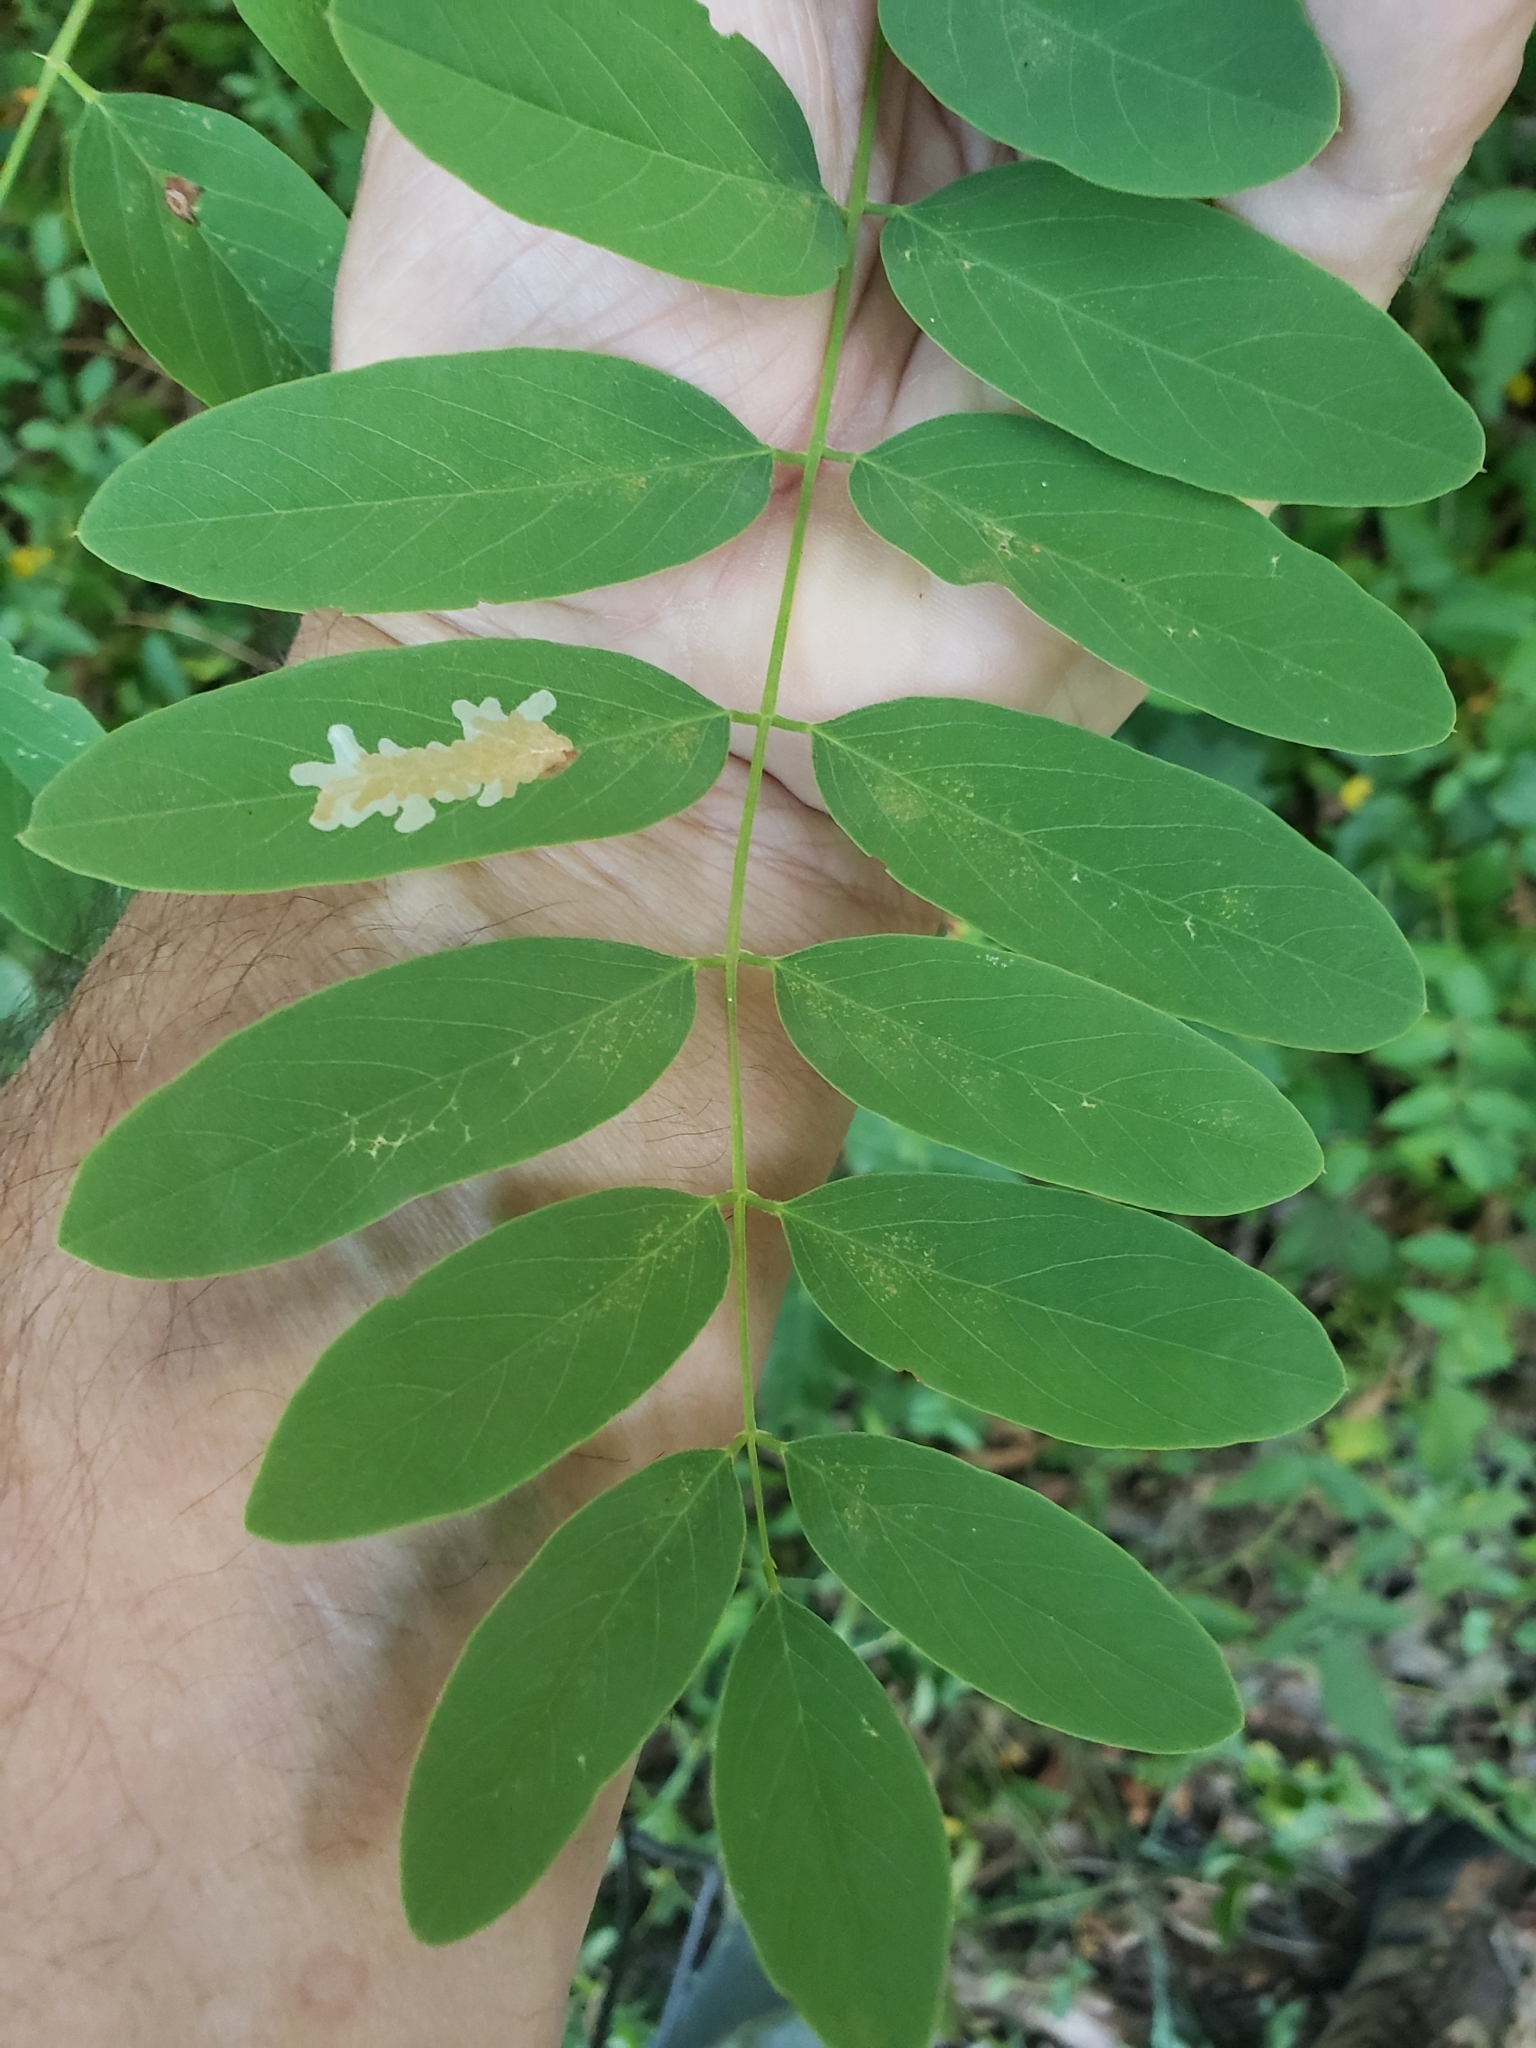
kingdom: Animalia
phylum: Arthropoda
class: Insecta
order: Lepidoptera
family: Gracillariidae
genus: Parectopa
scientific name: Parectopa robiniella
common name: Locust digitate leafminer
